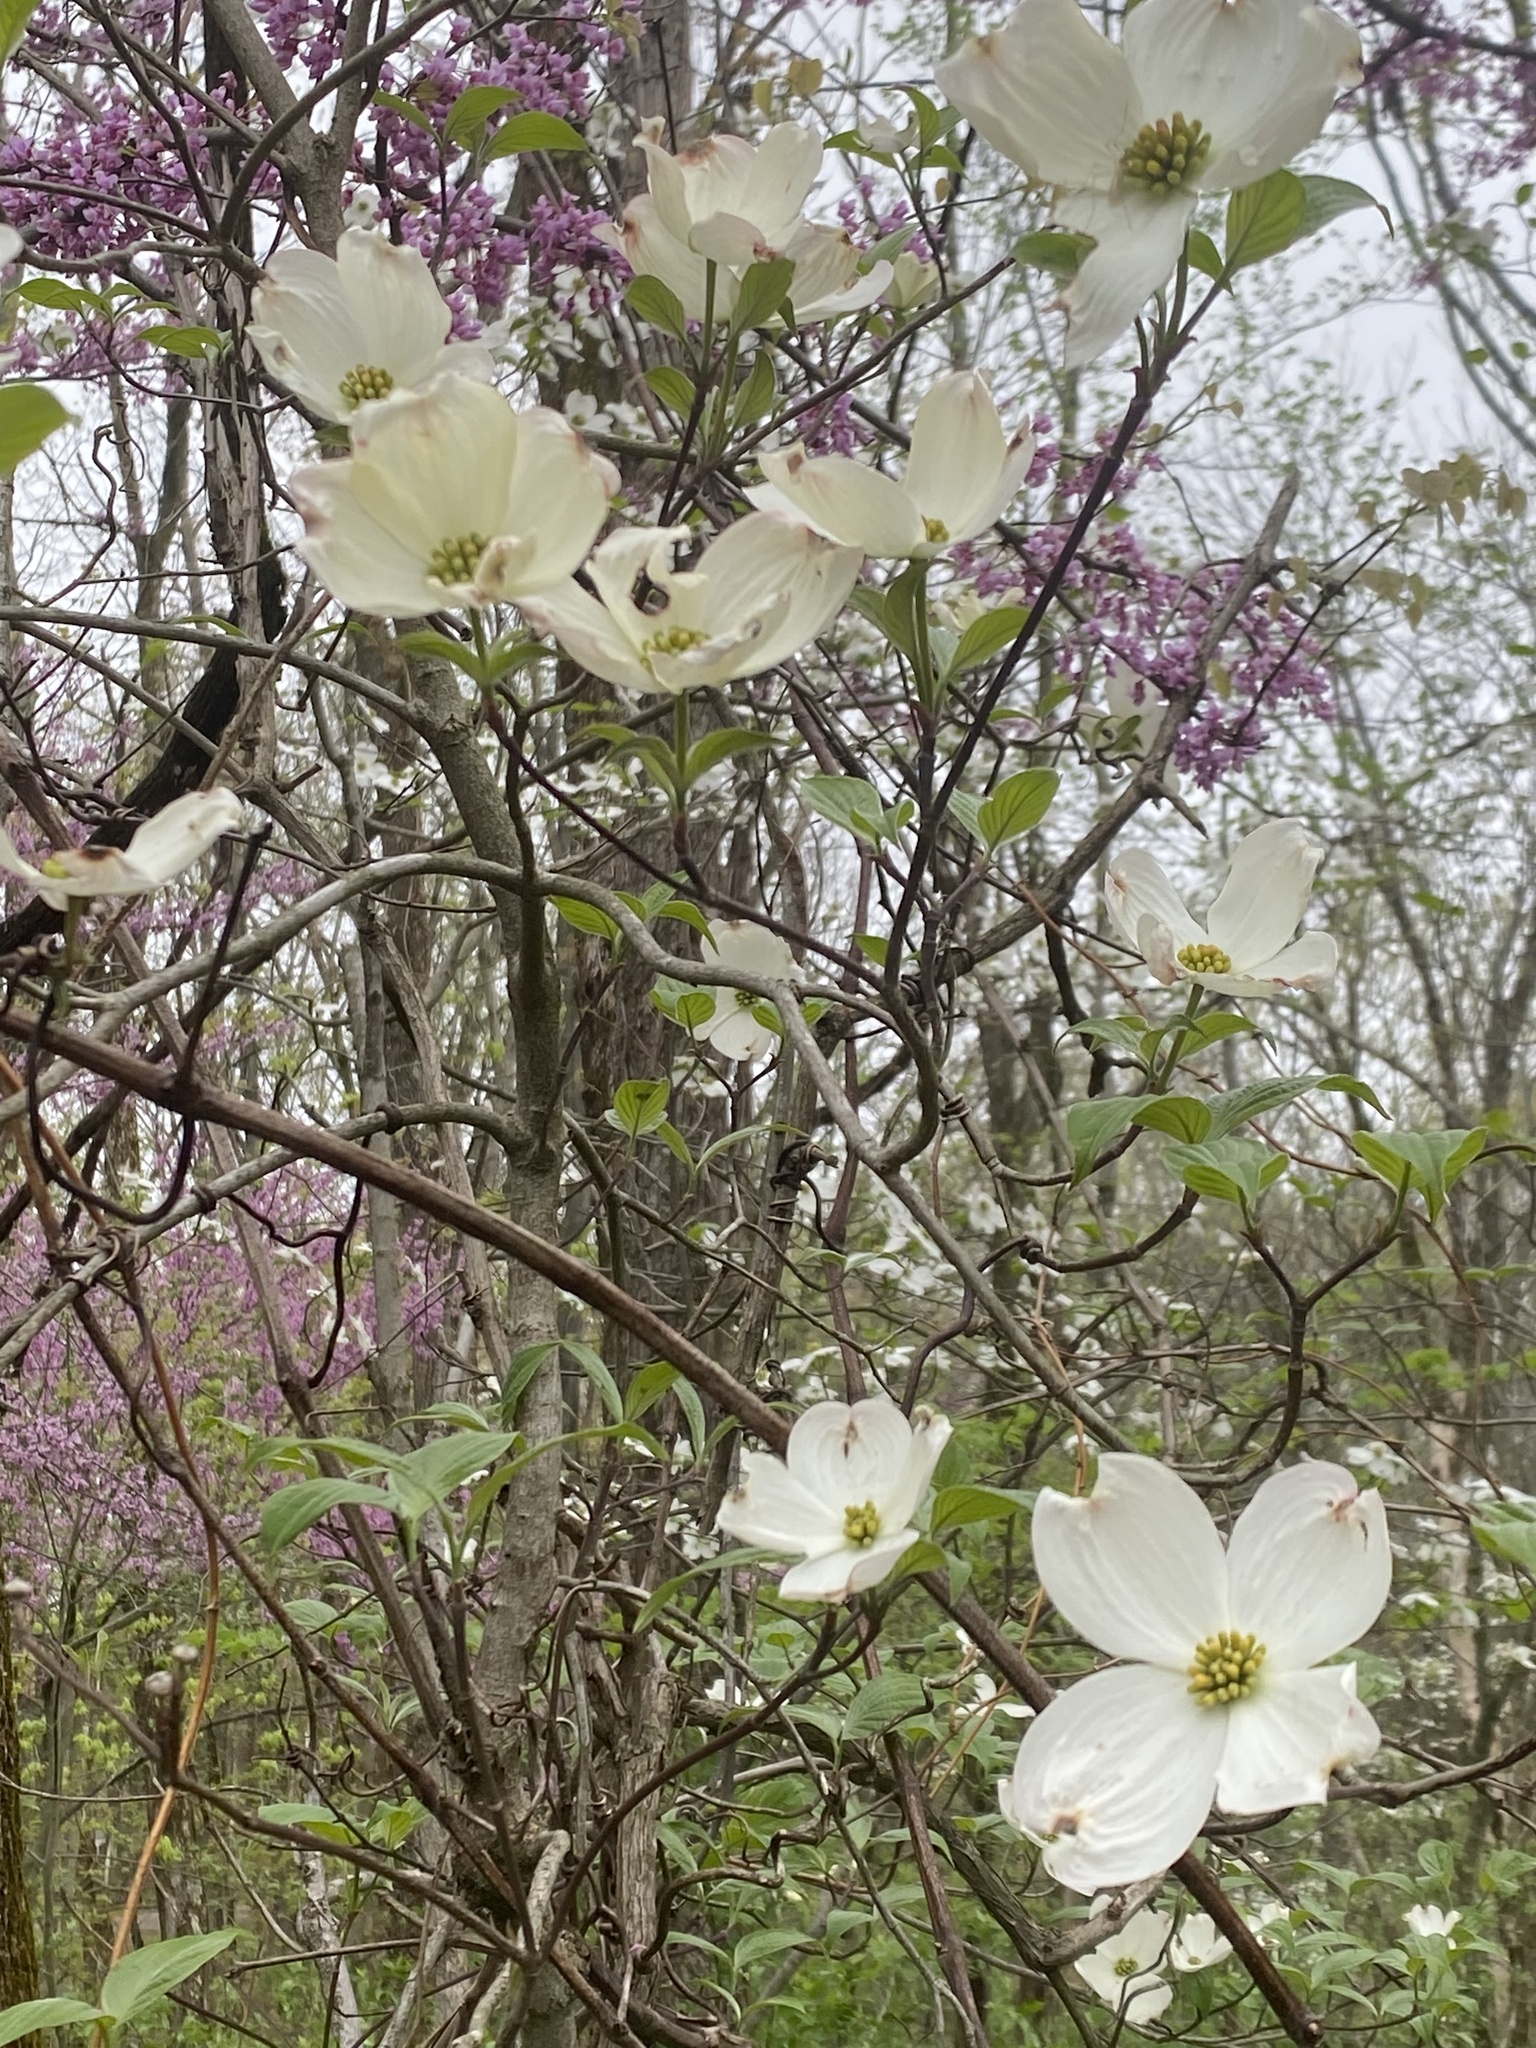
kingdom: Plantae
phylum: Tracheophyta
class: Magnoliopsida
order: Cornales
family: Cornaceae
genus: Cornus
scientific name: Cornus florida
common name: Flowering dogwood
